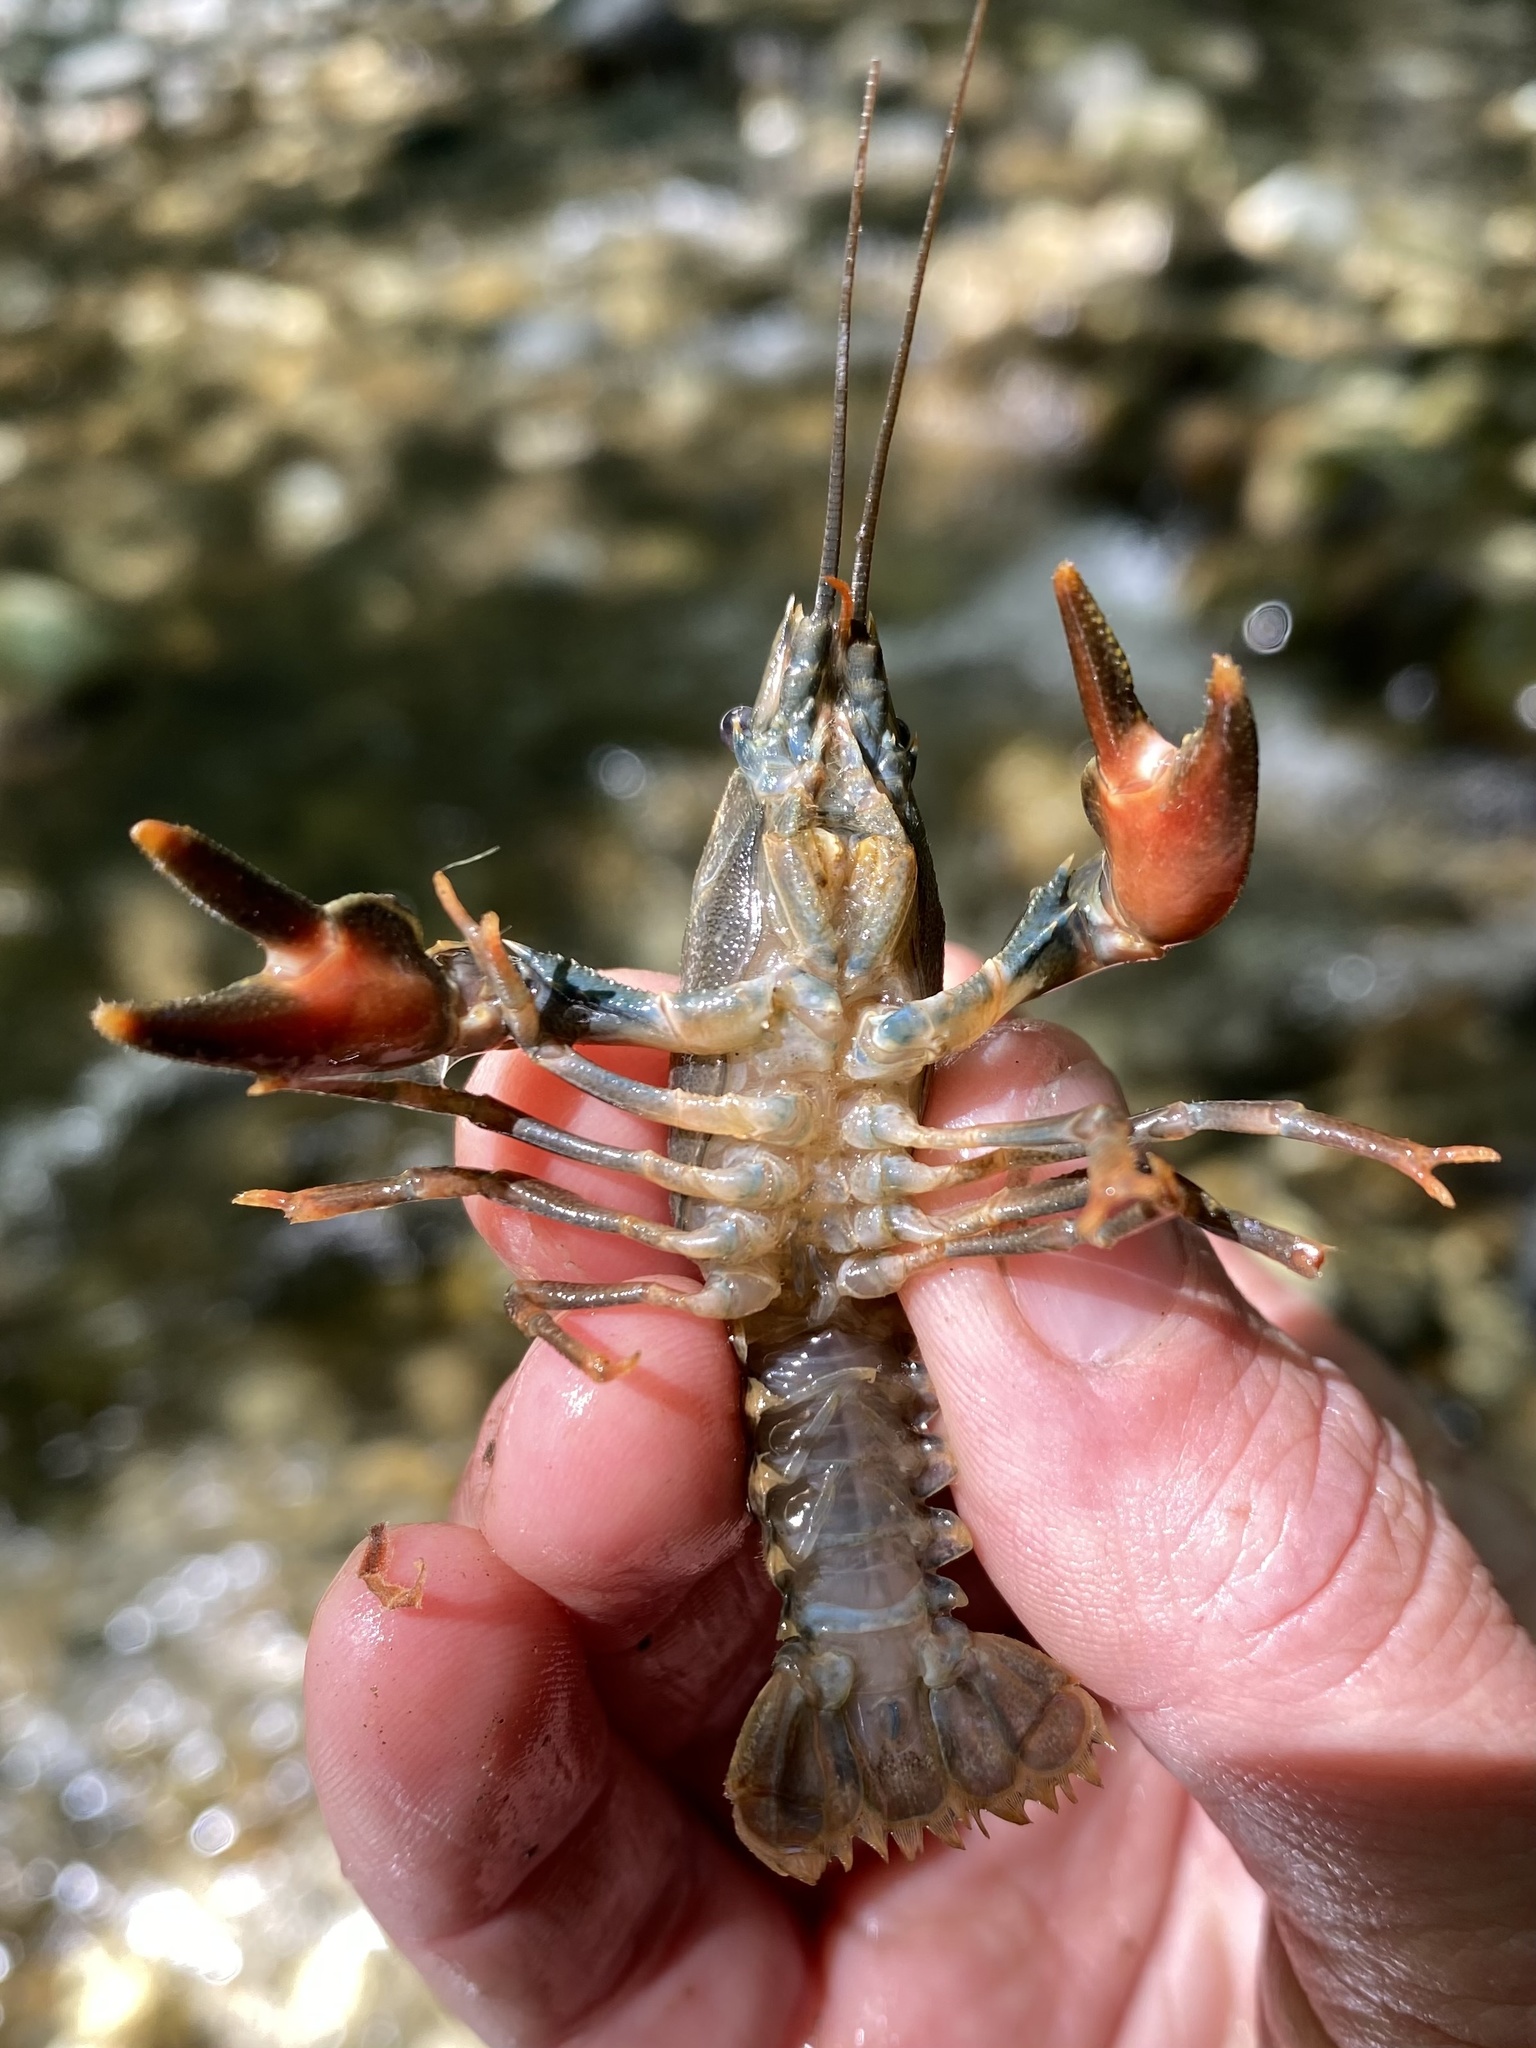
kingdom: Animalia
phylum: Arthropoda
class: Malacostraca
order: Decapoda
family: Astacidae
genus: Pacifastacus
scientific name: Pacifastacus leniusculus
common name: Signal crayfish
